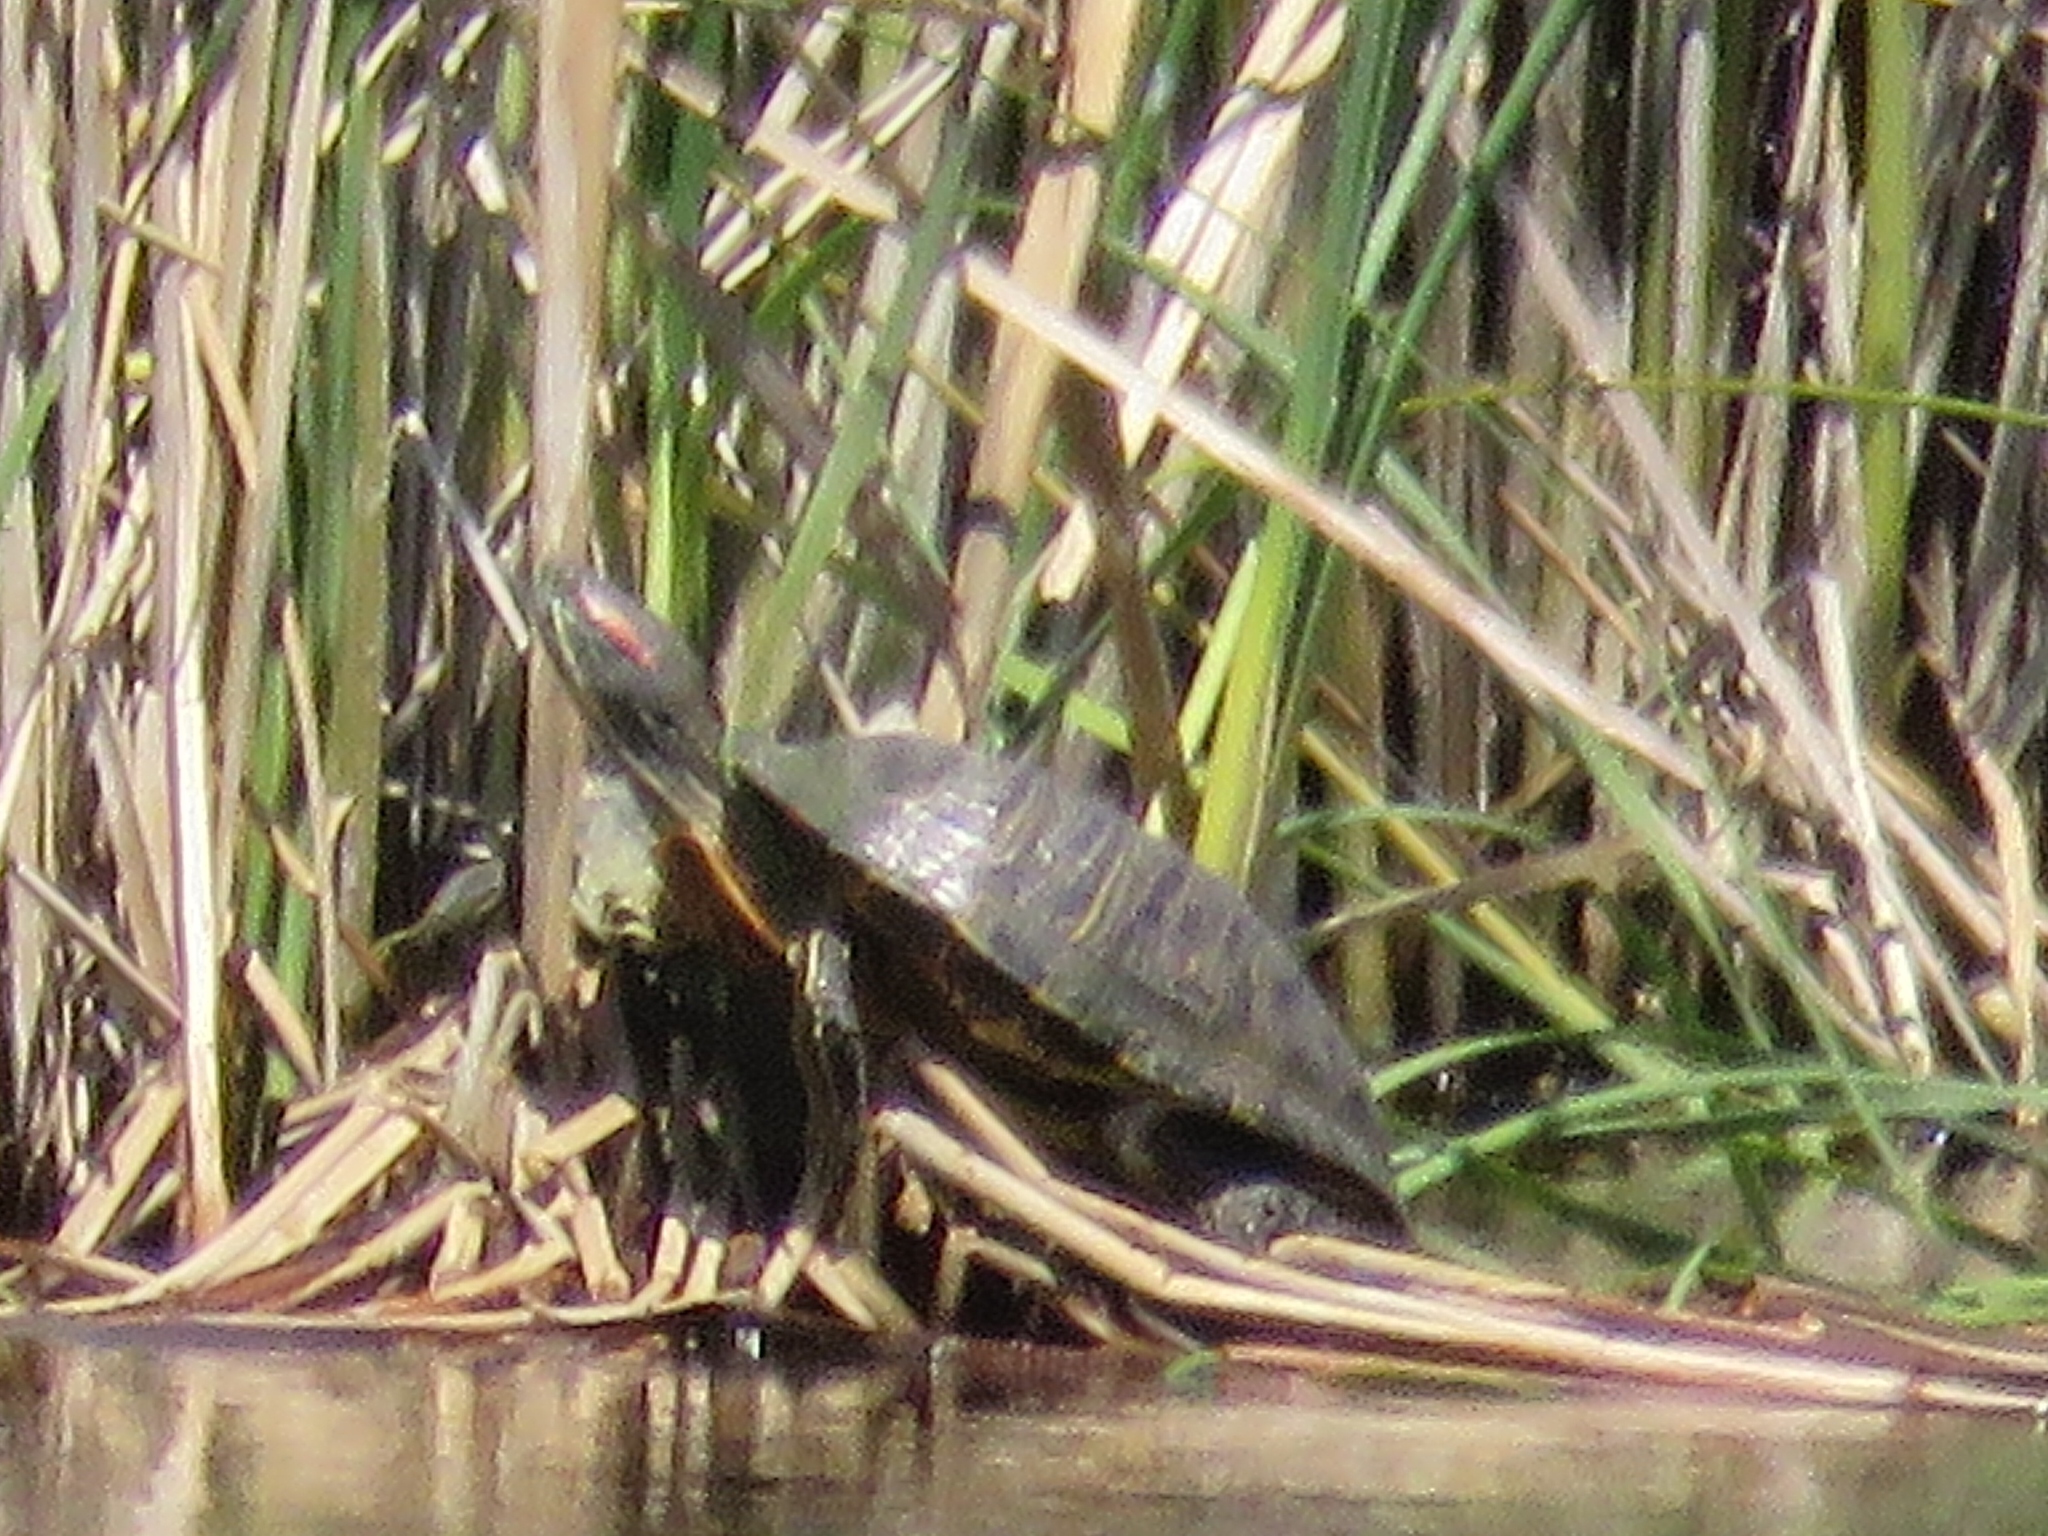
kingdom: Animalia
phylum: Chordata
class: Testudines
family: Emydidae
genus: Trachemys
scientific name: Trachemys scripta
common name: Slider
